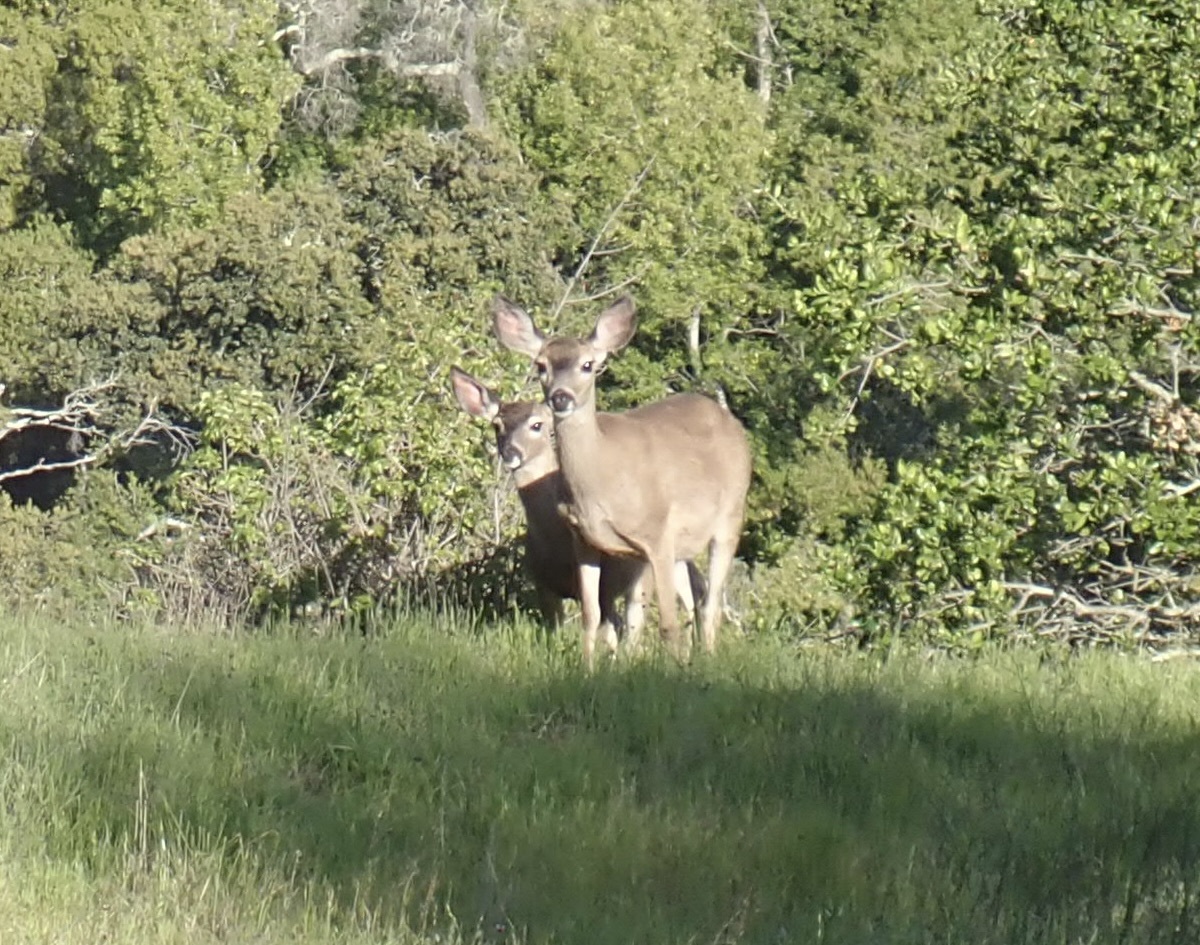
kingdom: Animalia
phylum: Chordata
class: Mammalia
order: Artiodactyla
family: Cervidae
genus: Odocoileus
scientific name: Odocoileus hemionus
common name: Mule deer
